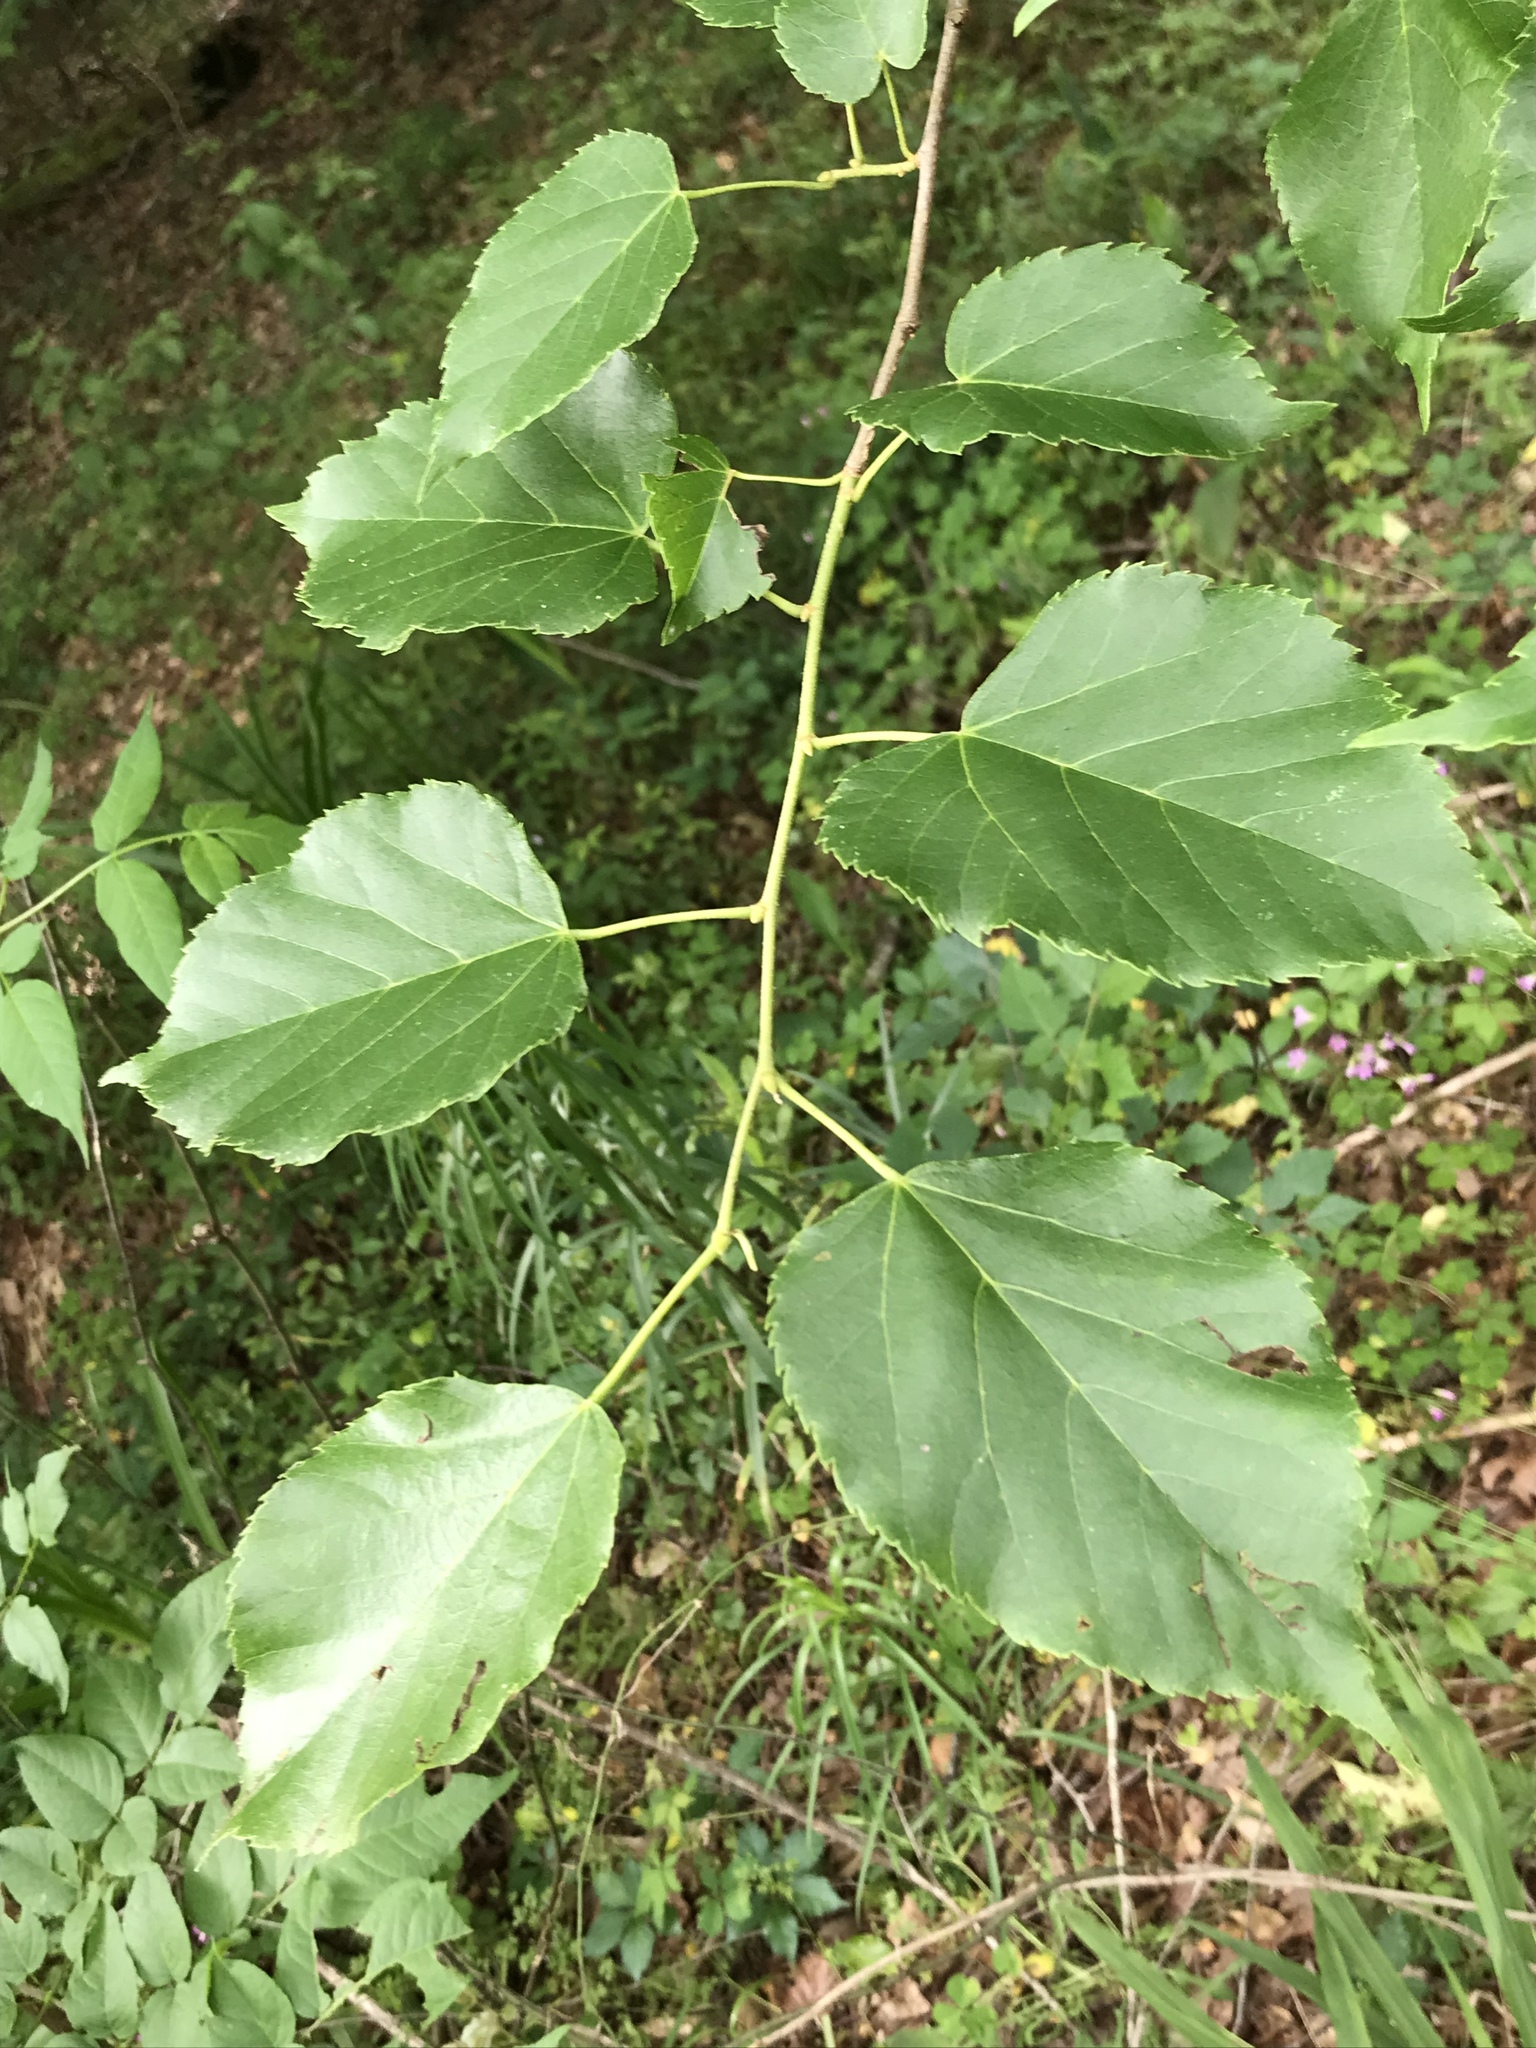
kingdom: Plantae
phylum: Tracheophyta
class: Magnoliopsida
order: Malvales
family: Malvaceae
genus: Tilia
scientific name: Tilia americana
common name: Basswood
